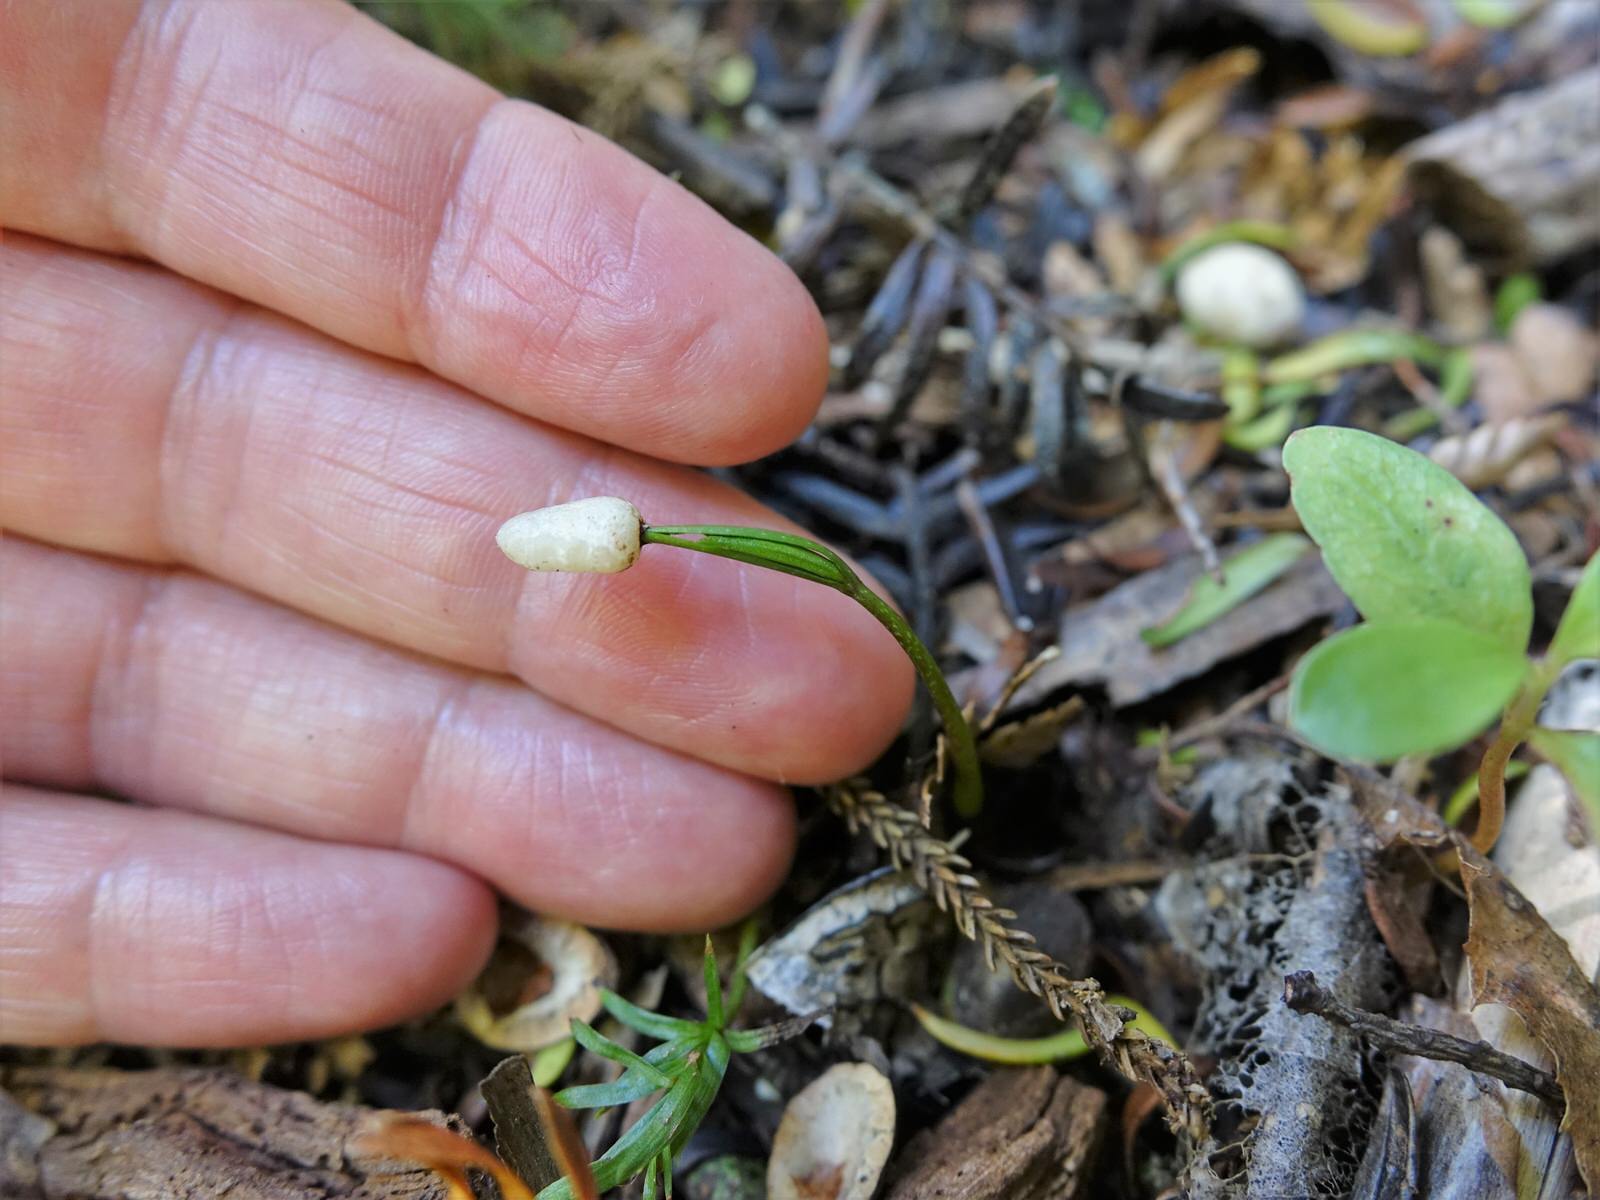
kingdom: Plantae
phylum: Tracheophyta
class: Pinopsida
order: Pinales
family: Podocarpaceae
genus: Prumnopitys
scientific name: Prumnopitys ferruginea
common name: Brown pine
